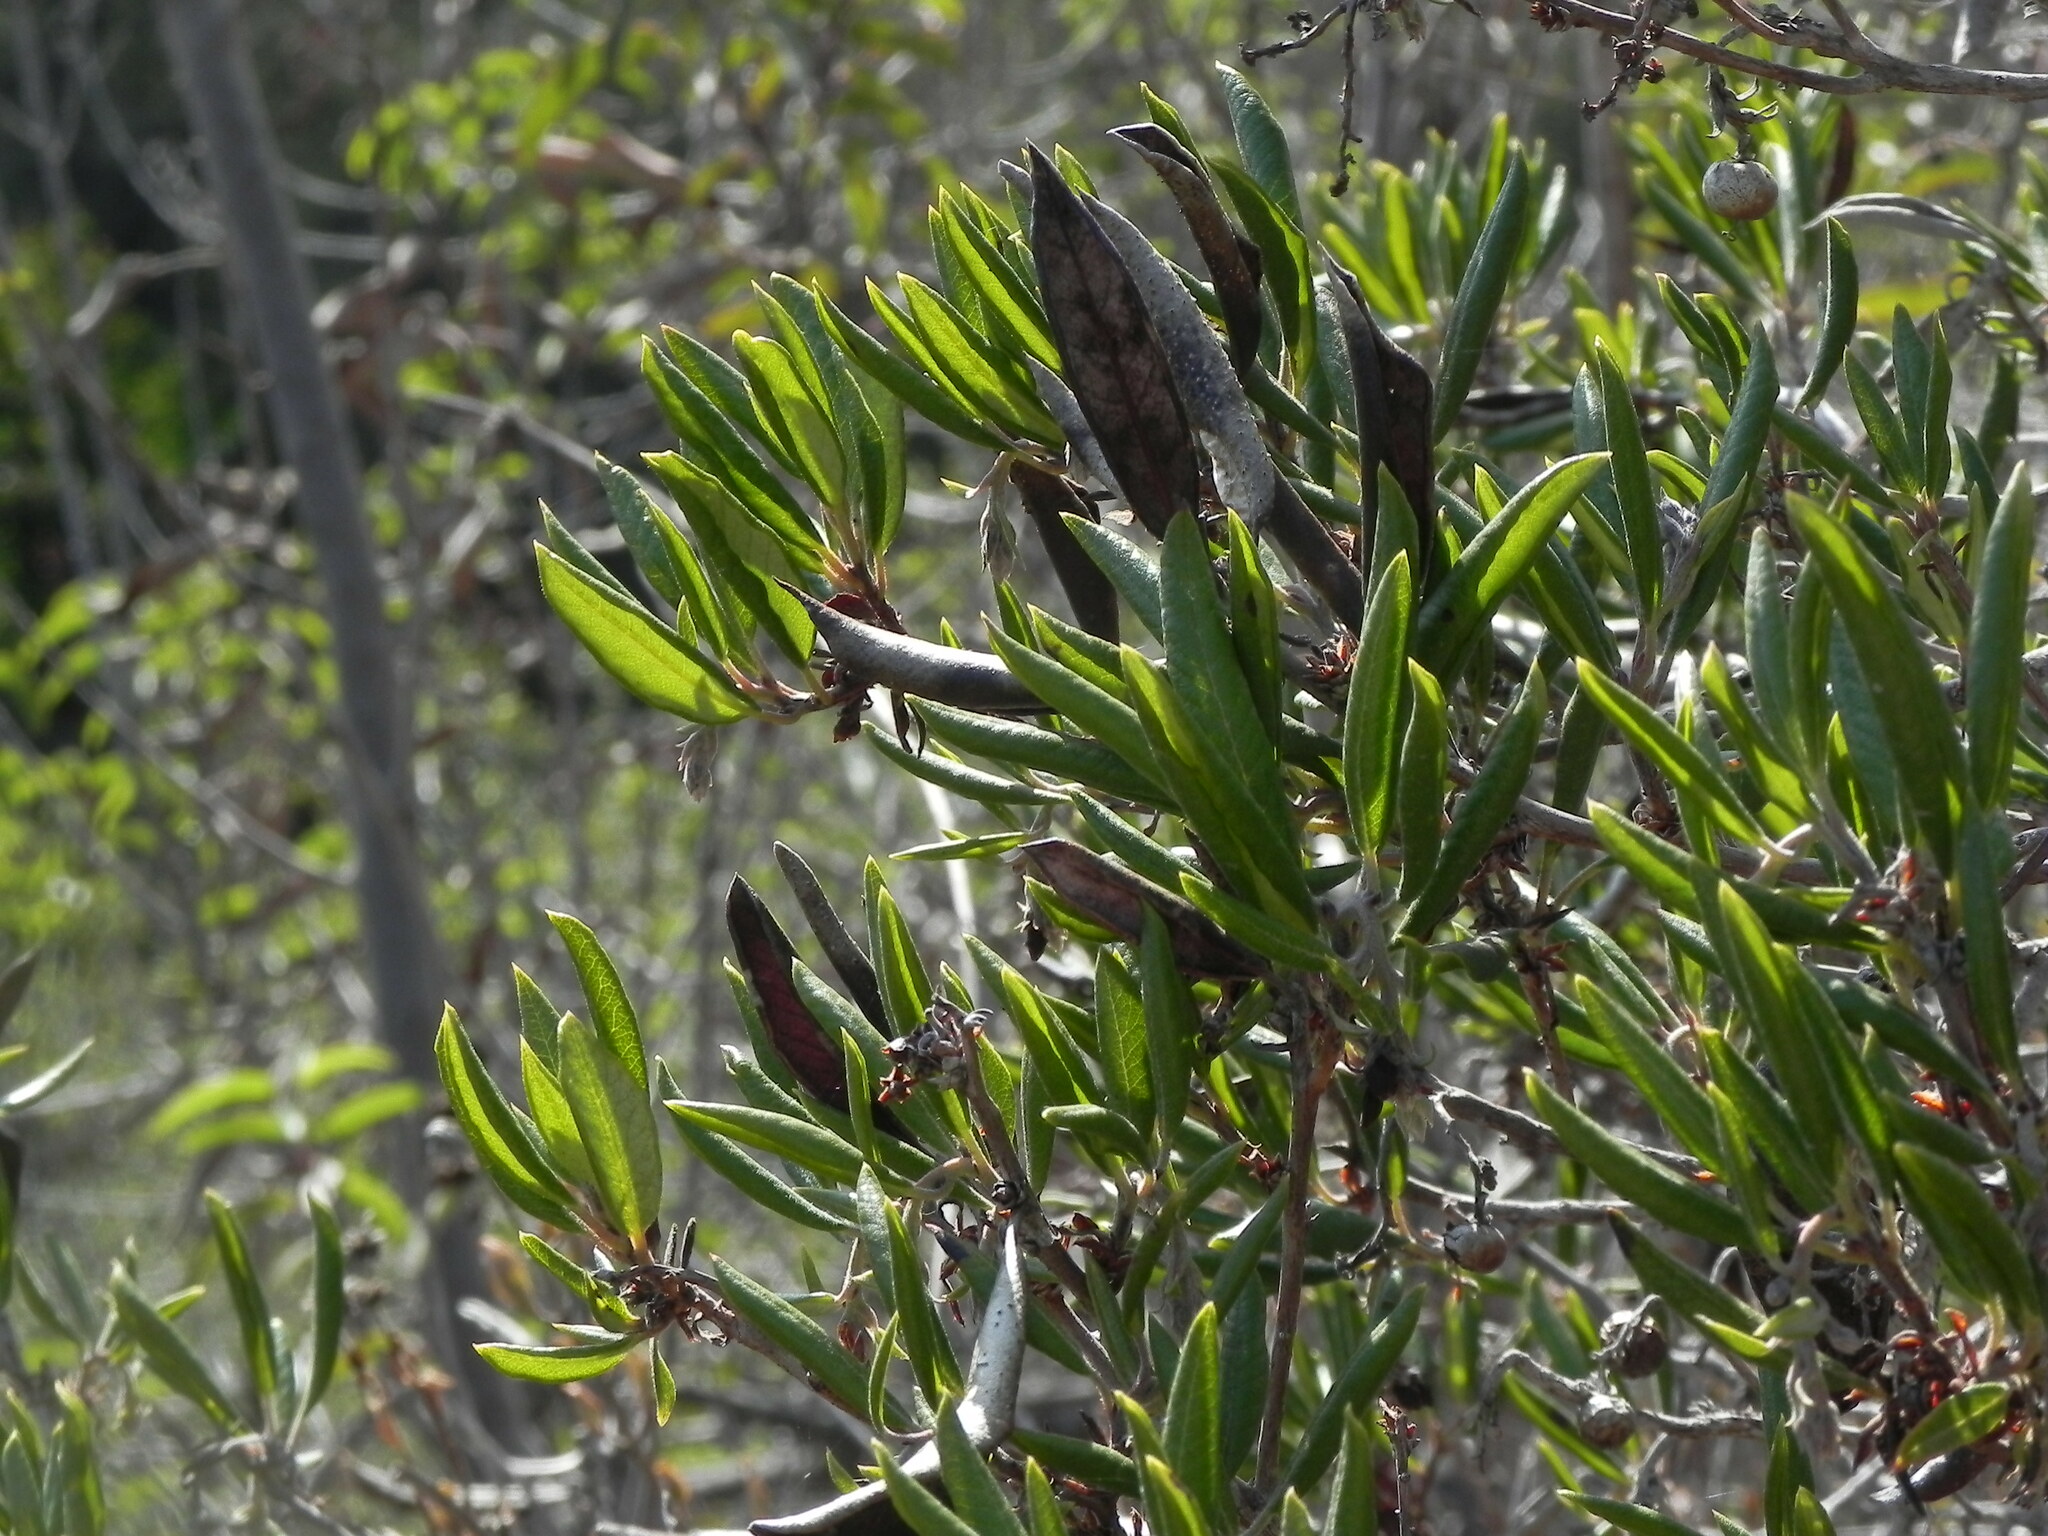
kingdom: Plantae
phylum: Tracheophyta
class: Magnoliopsida
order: Ericales
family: Ericaceae
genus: Arctostaphylos
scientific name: Arctostaphylos bicolor
